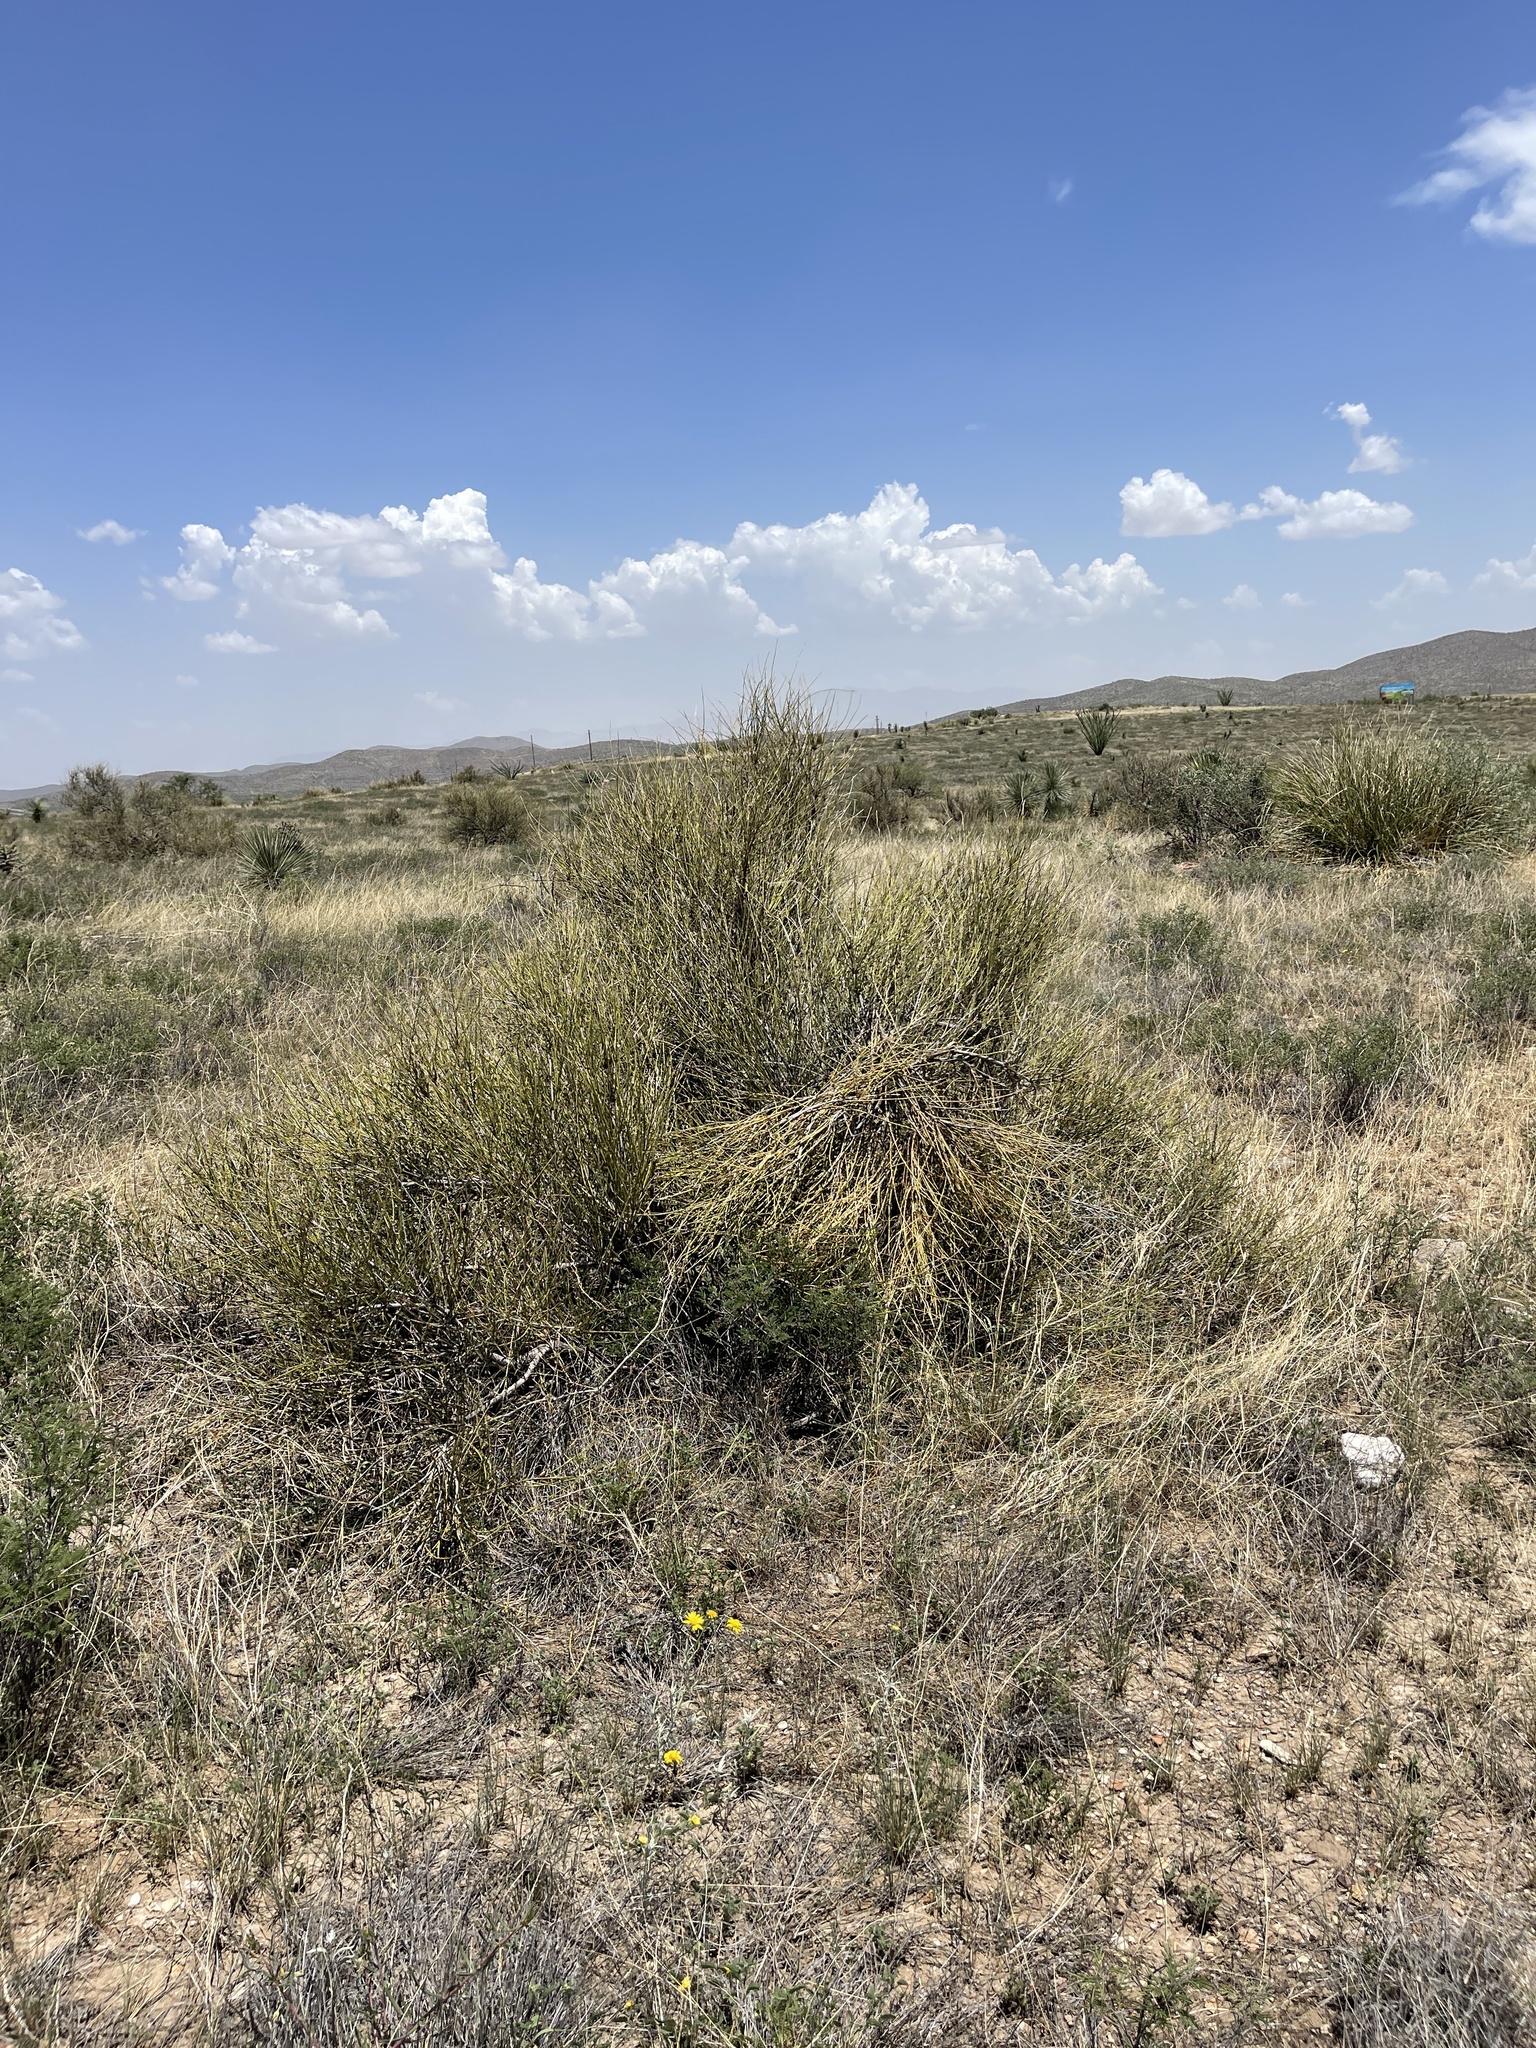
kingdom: Plantae
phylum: Tracheophyta
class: Gnetopsida
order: Ephedrales
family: Ephedraceae
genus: Ephedra
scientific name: Ephedra trifurca
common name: Mexican-tea
